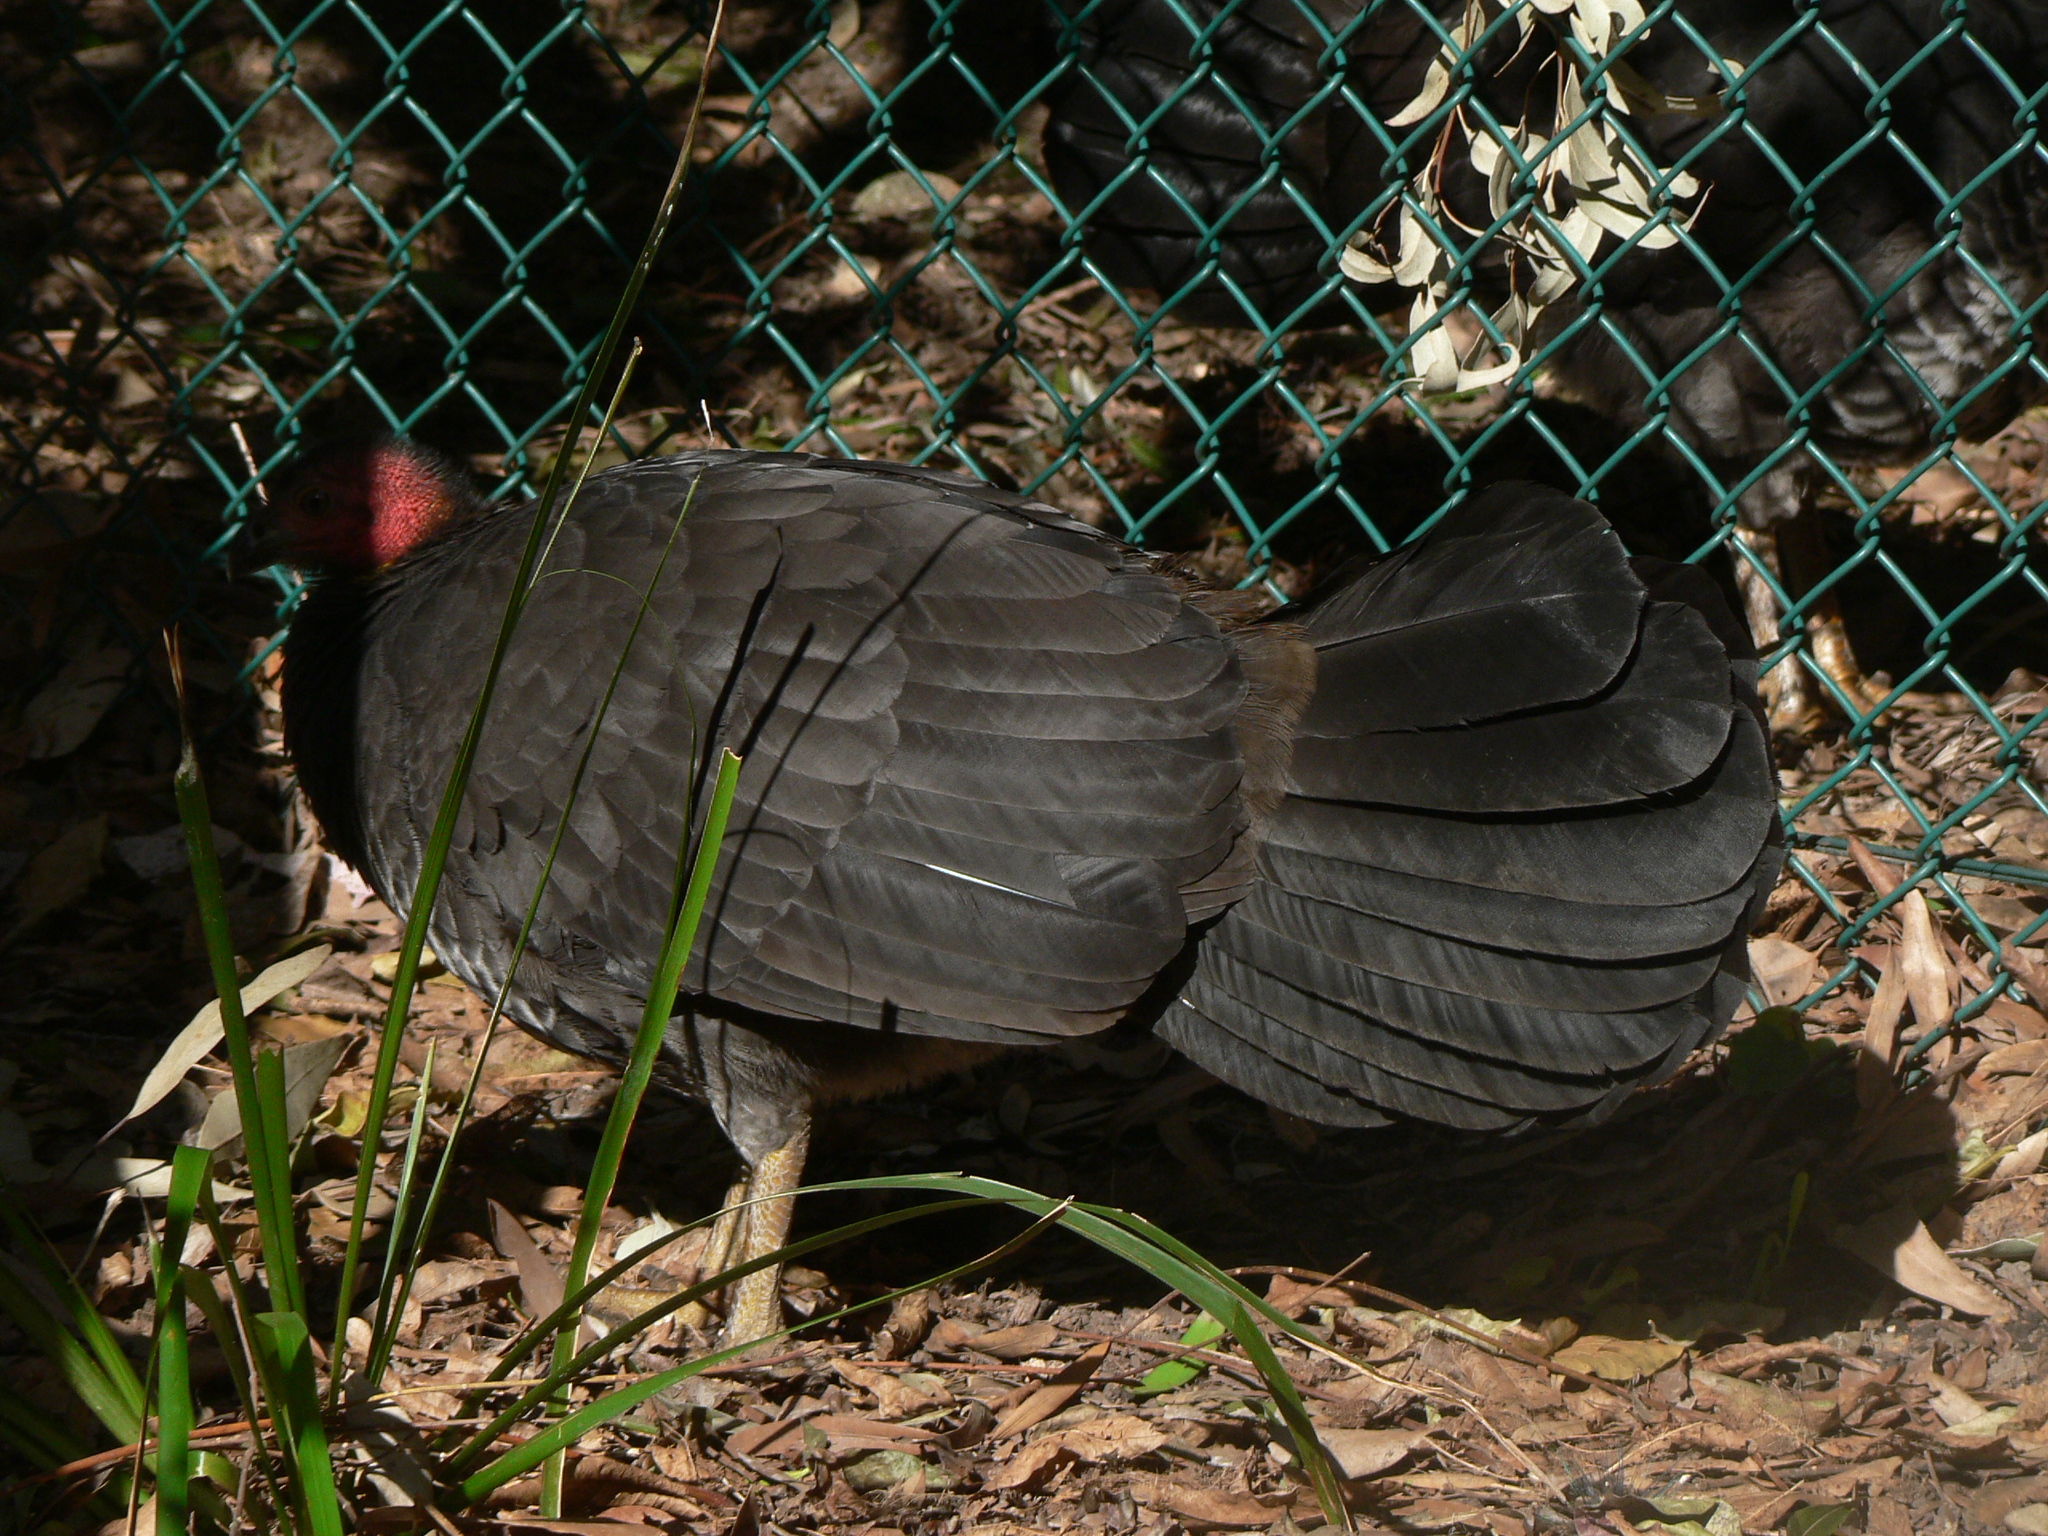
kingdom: Animalia
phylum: Chordata
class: Aves
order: Galliformes
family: Megapodiidae
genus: Alectura
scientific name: Alectura lathami
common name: Australian brushturkey
